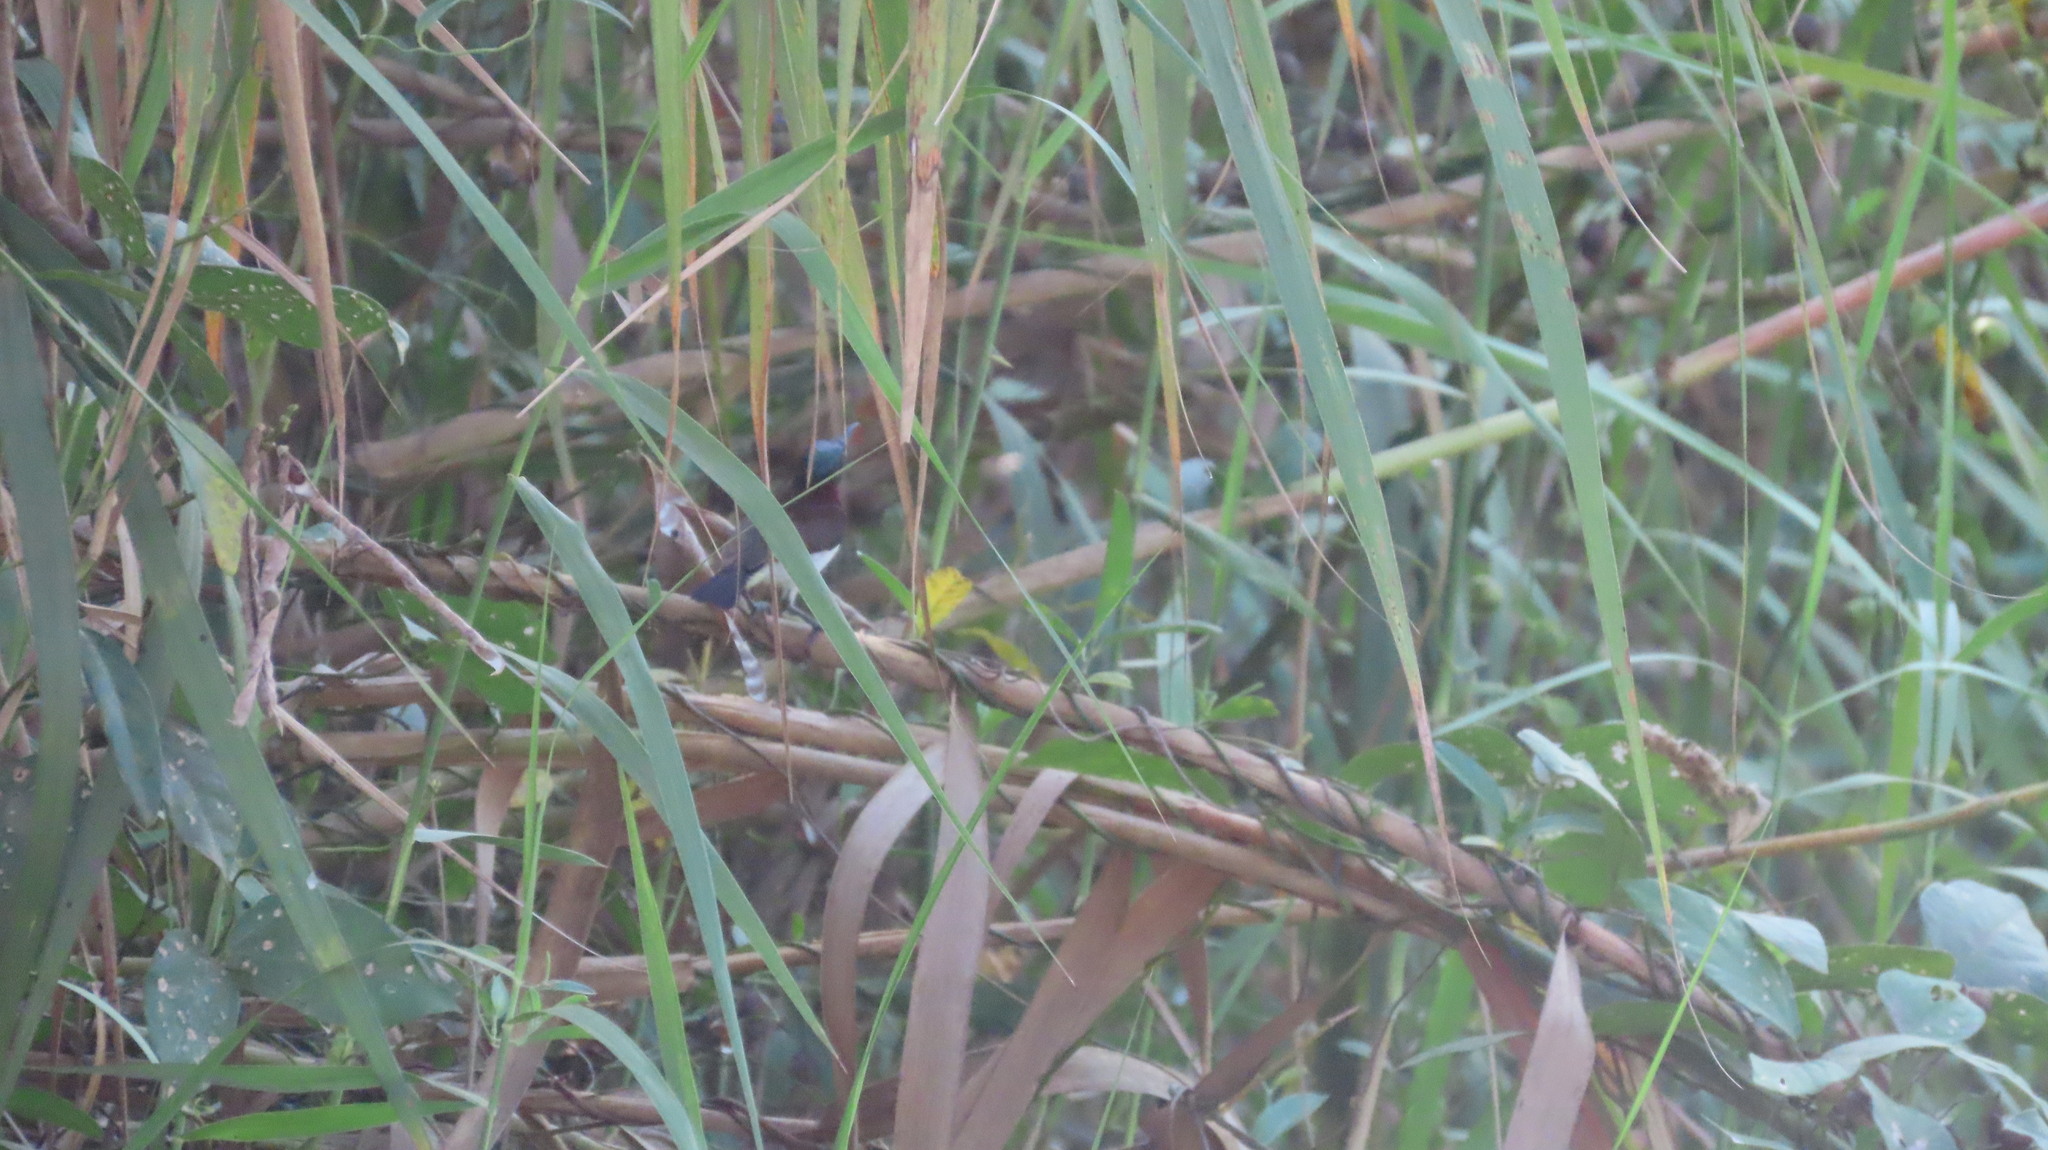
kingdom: Animalia
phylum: Chordata
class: Aves
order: Passeriformes
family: Nectariniidae
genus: Leptocoma
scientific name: Leptocoma zeylonica
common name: Purple-rumped sunbird
